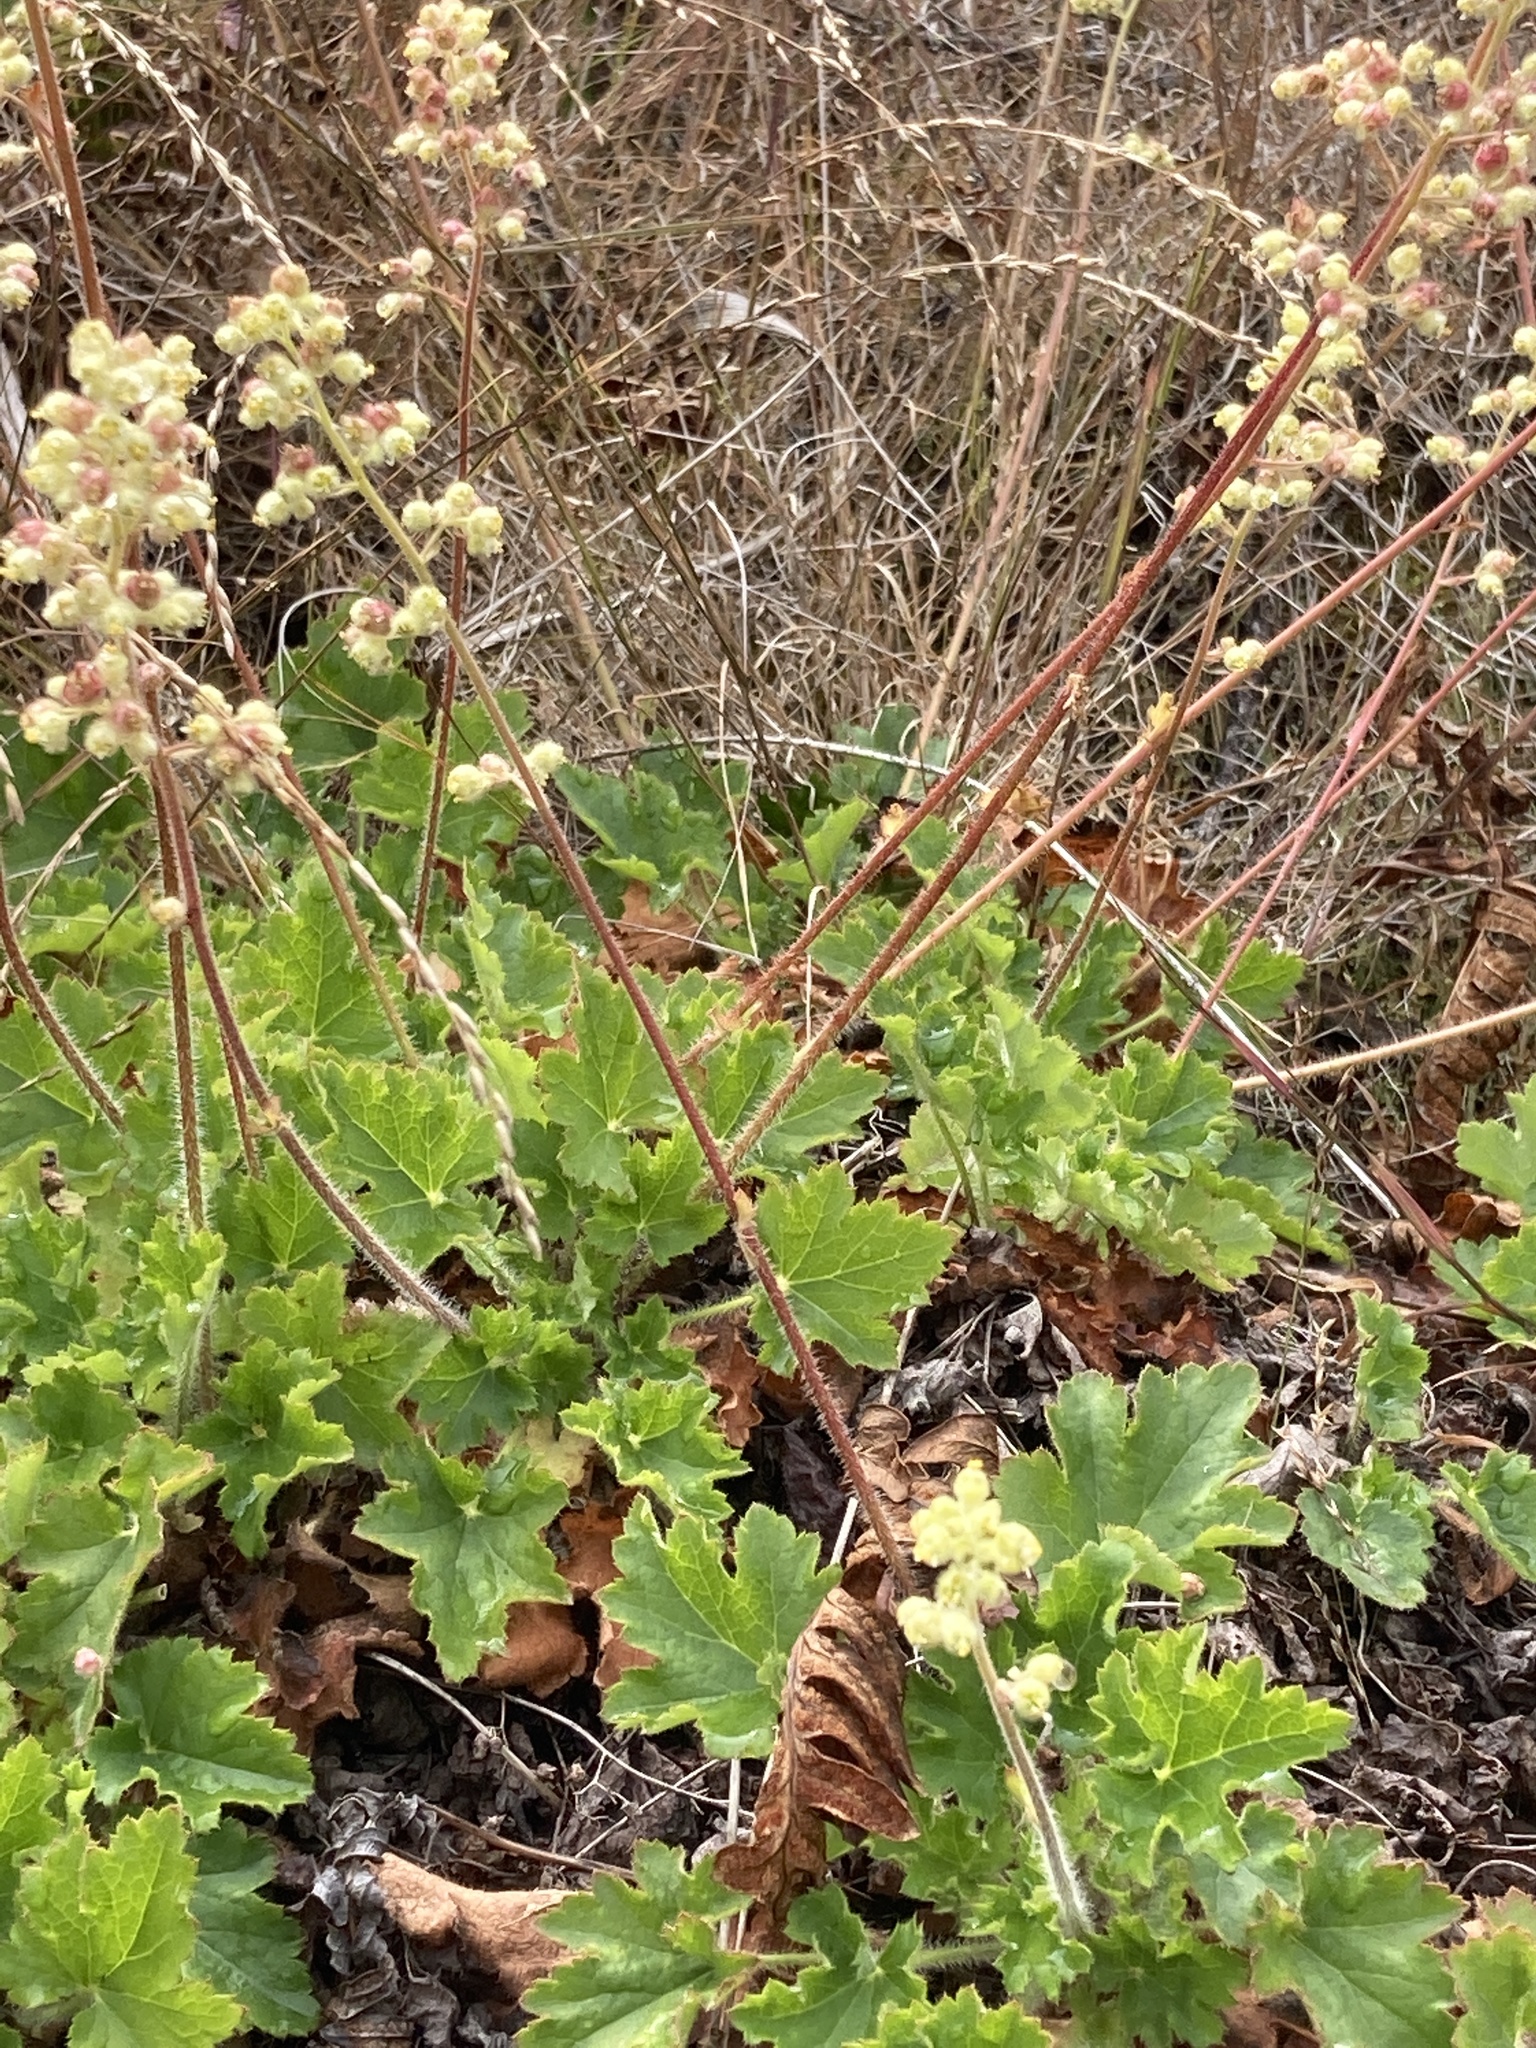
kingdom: Plantae
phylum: Tracheophyta
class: Magnoliopsida
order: Saxifragales
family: Saxifragaceae
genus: Heuchera
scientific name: Heuchera pilosissima
